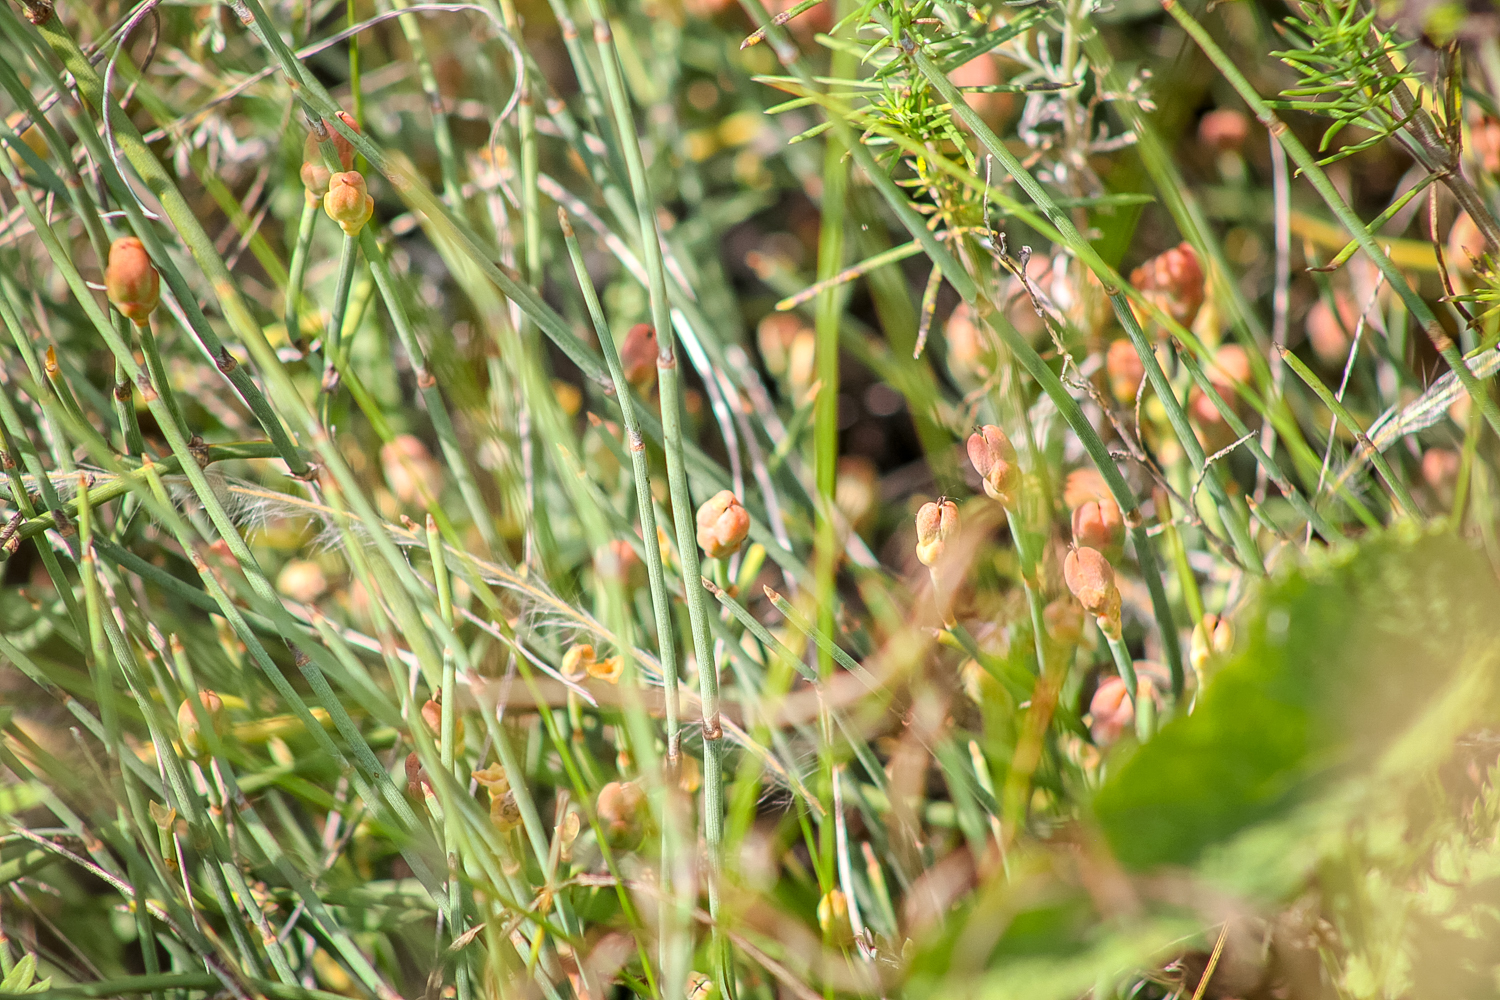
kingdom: Plantae
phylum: Tracheophyta
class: Gnetopsida
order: Ephedrales
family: Ephedraceae
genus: Ephedra
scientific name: Ephedra distachya
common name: Sea grape
